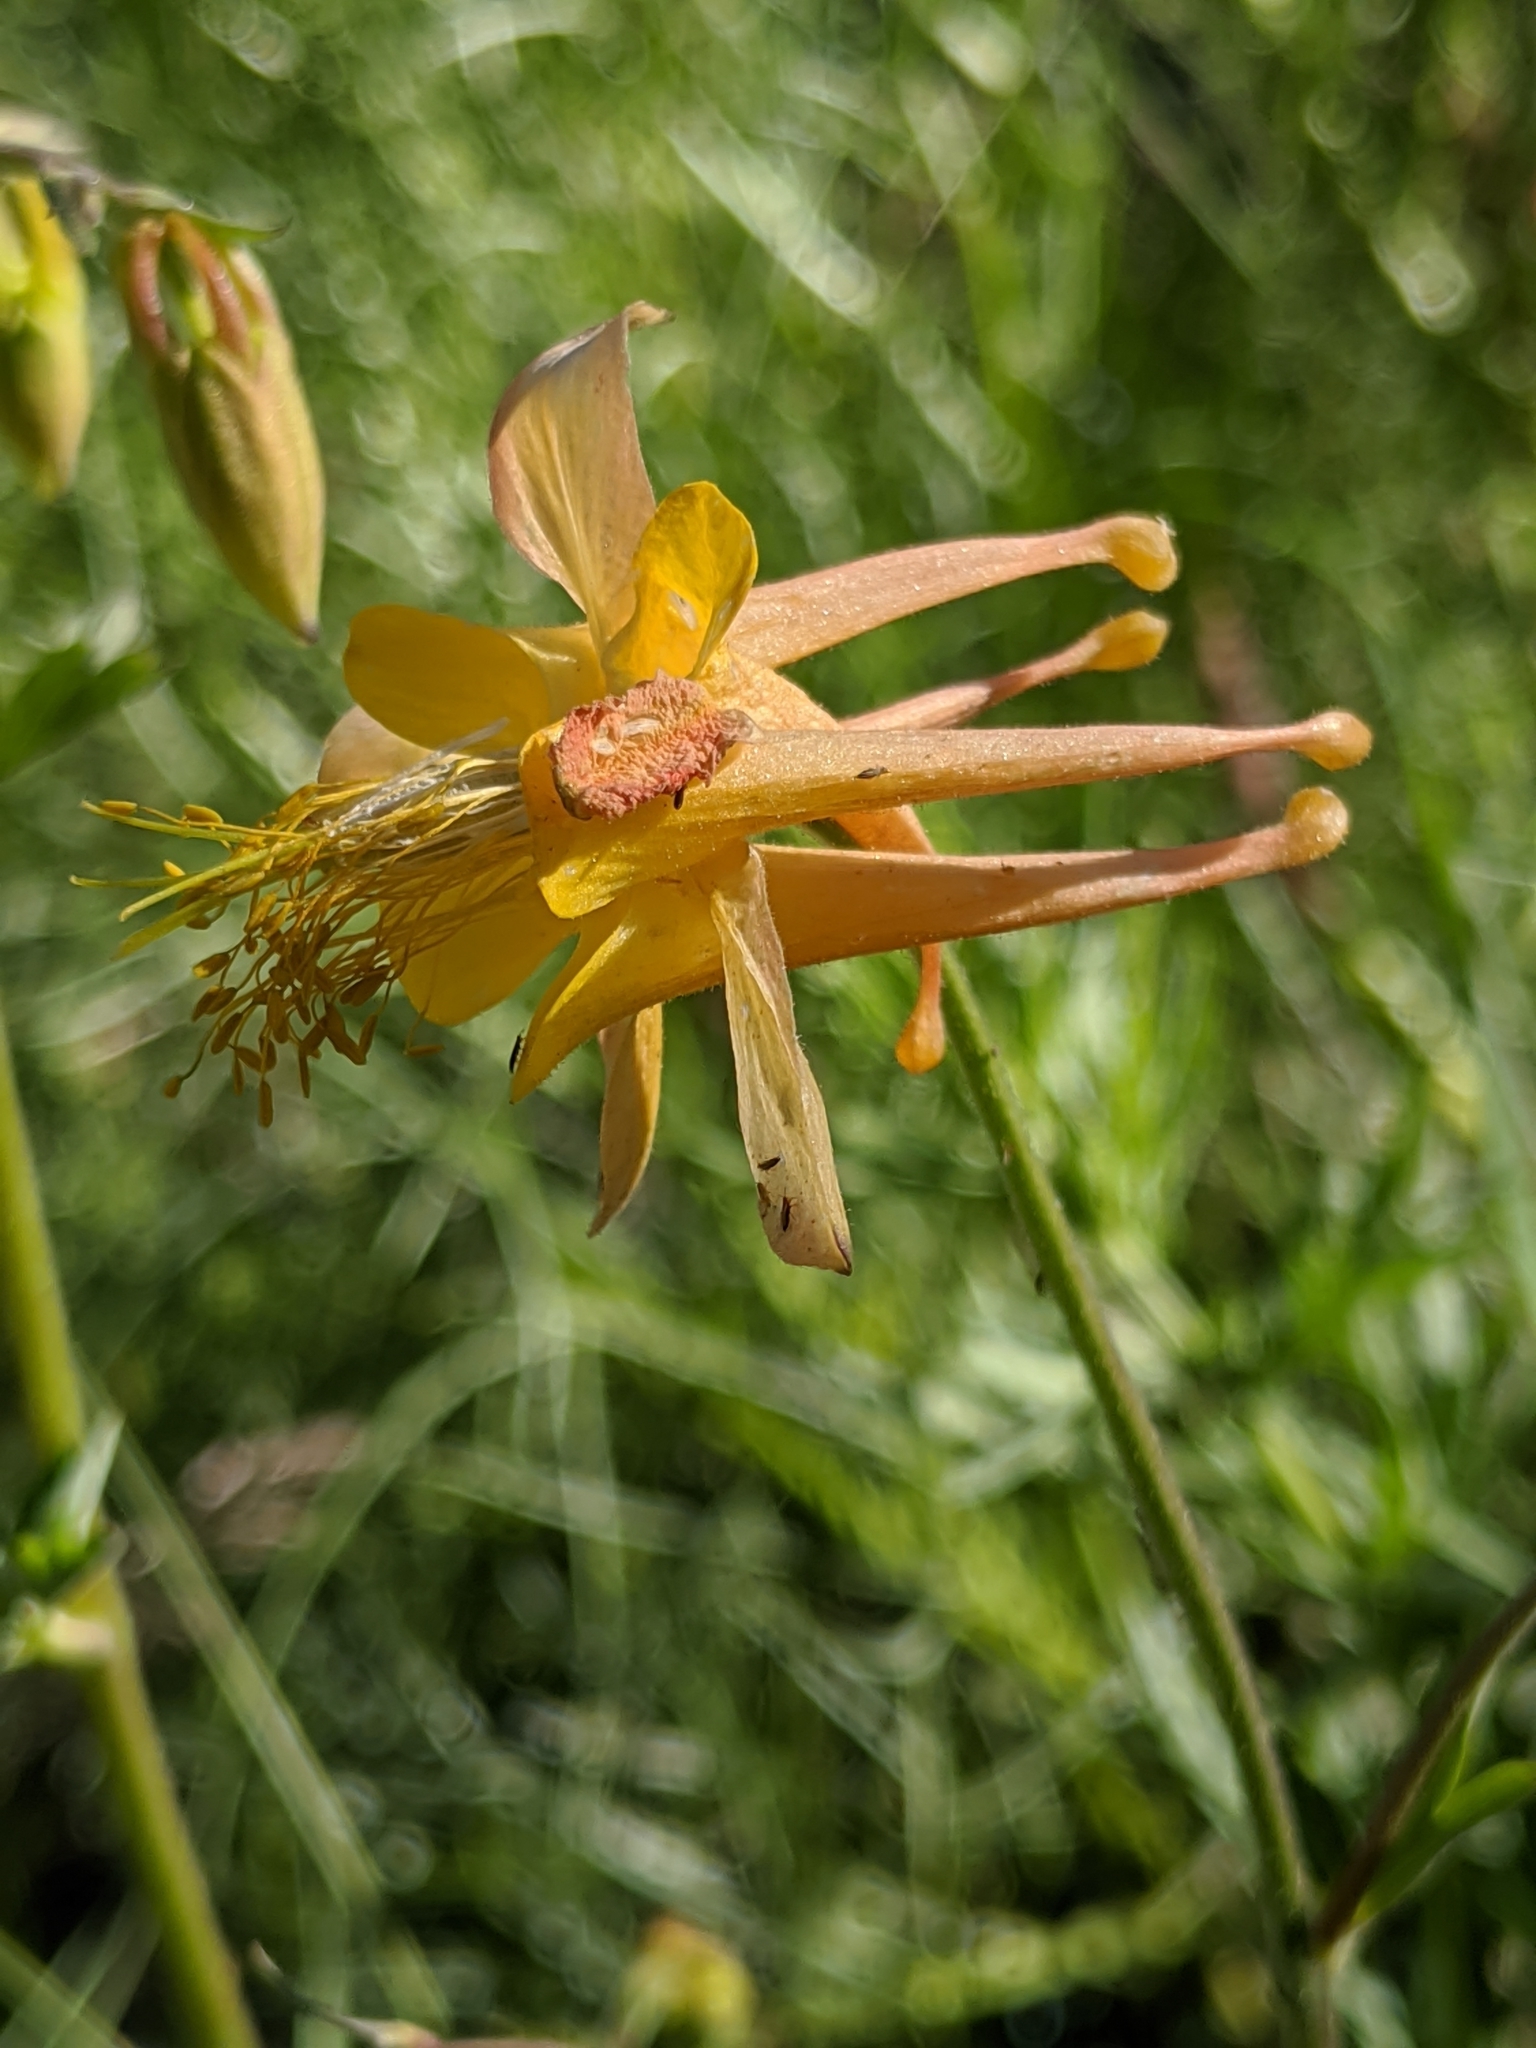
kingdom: Plantae
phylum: Tracheophyta
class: Magnoliopsida
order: Ranunculales
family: Ranunculaceae
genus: Aquilegia
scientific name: Aquilegia formosa
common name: Sitka columbine
